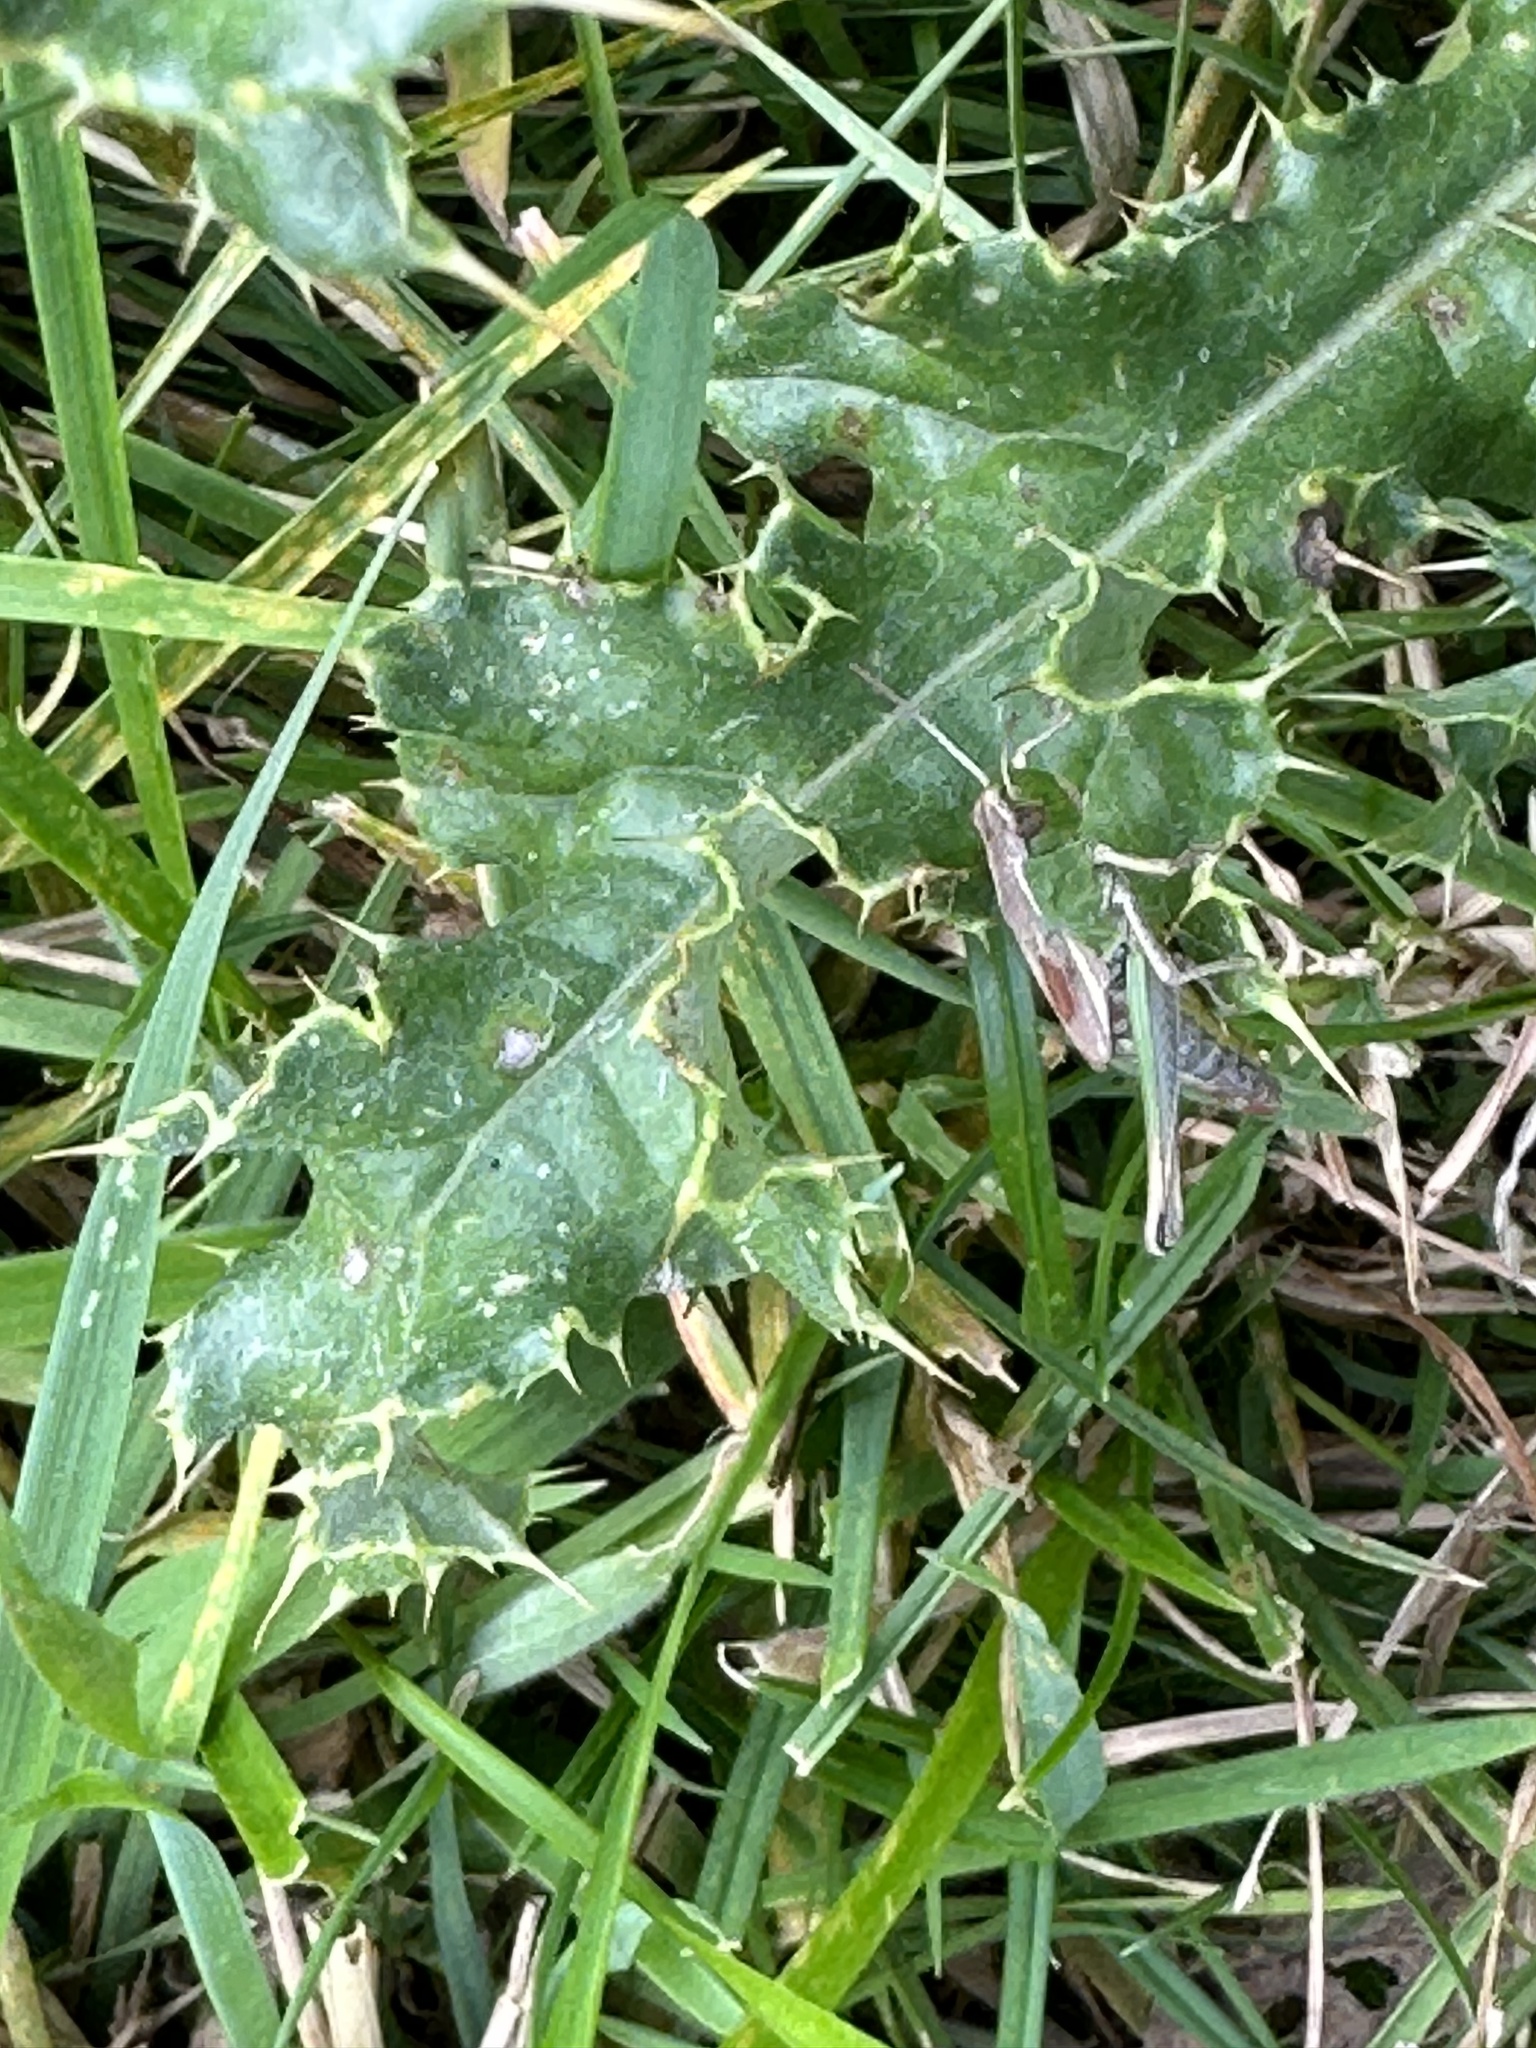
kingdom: Animalia
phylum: Arthropoda
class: Insecta
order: Orthoptera
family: Acrididae
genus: Pseudochorthippus
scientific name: Pseudochorthippus parallelus
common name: Meadow grasshopper
